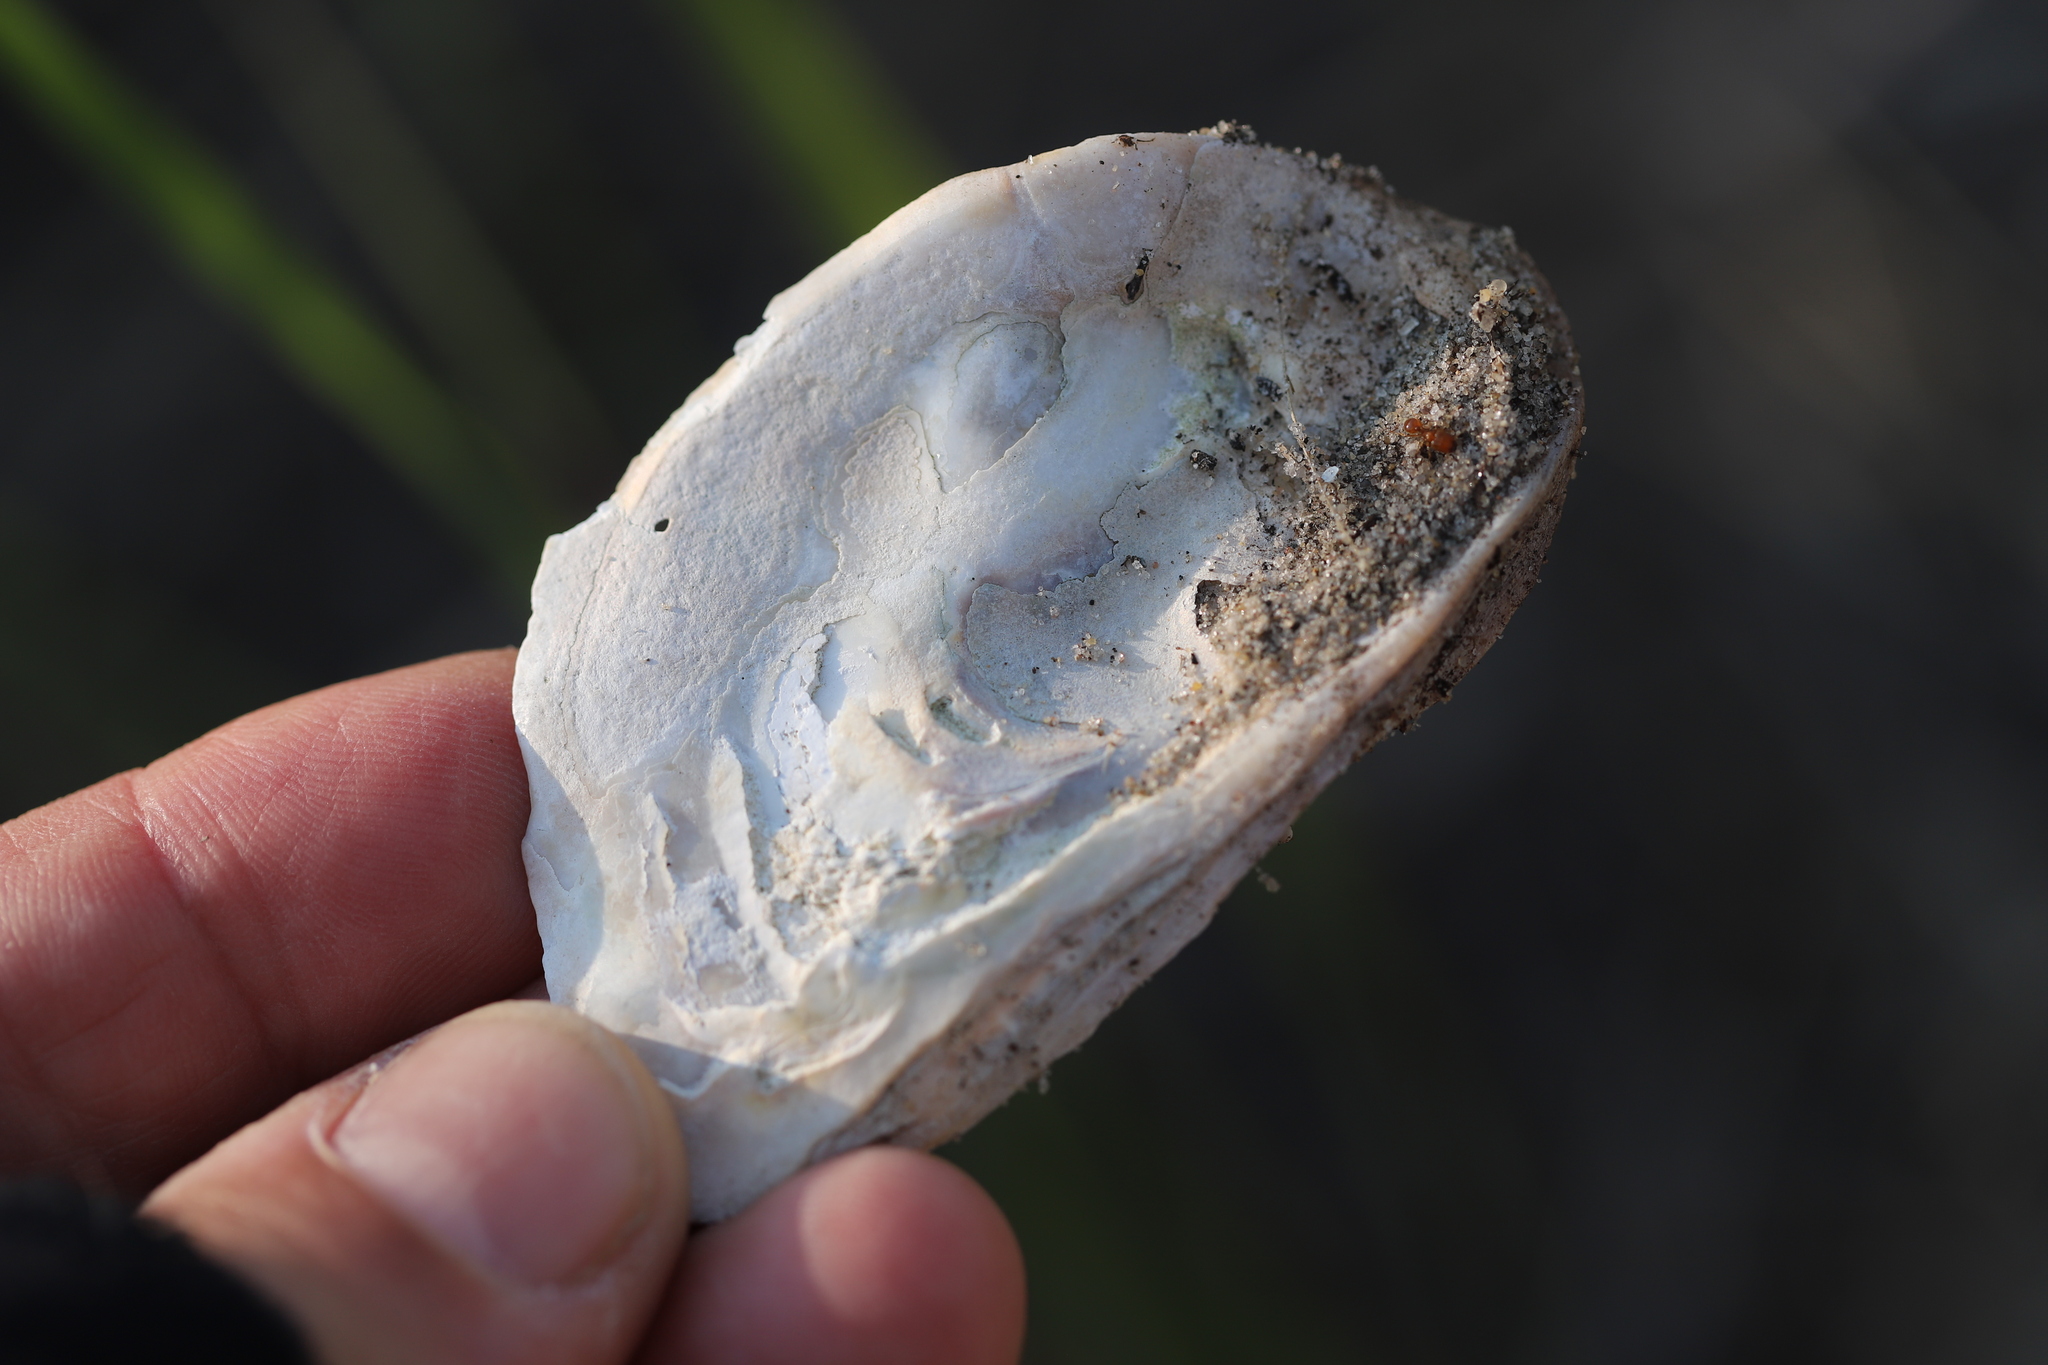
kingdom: Animalia
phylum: Mollusca
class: Bivalvia
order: Ostreida
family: Ostreidae
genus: Crassostrea
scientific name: Crassostrea virginica
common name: American oyster
